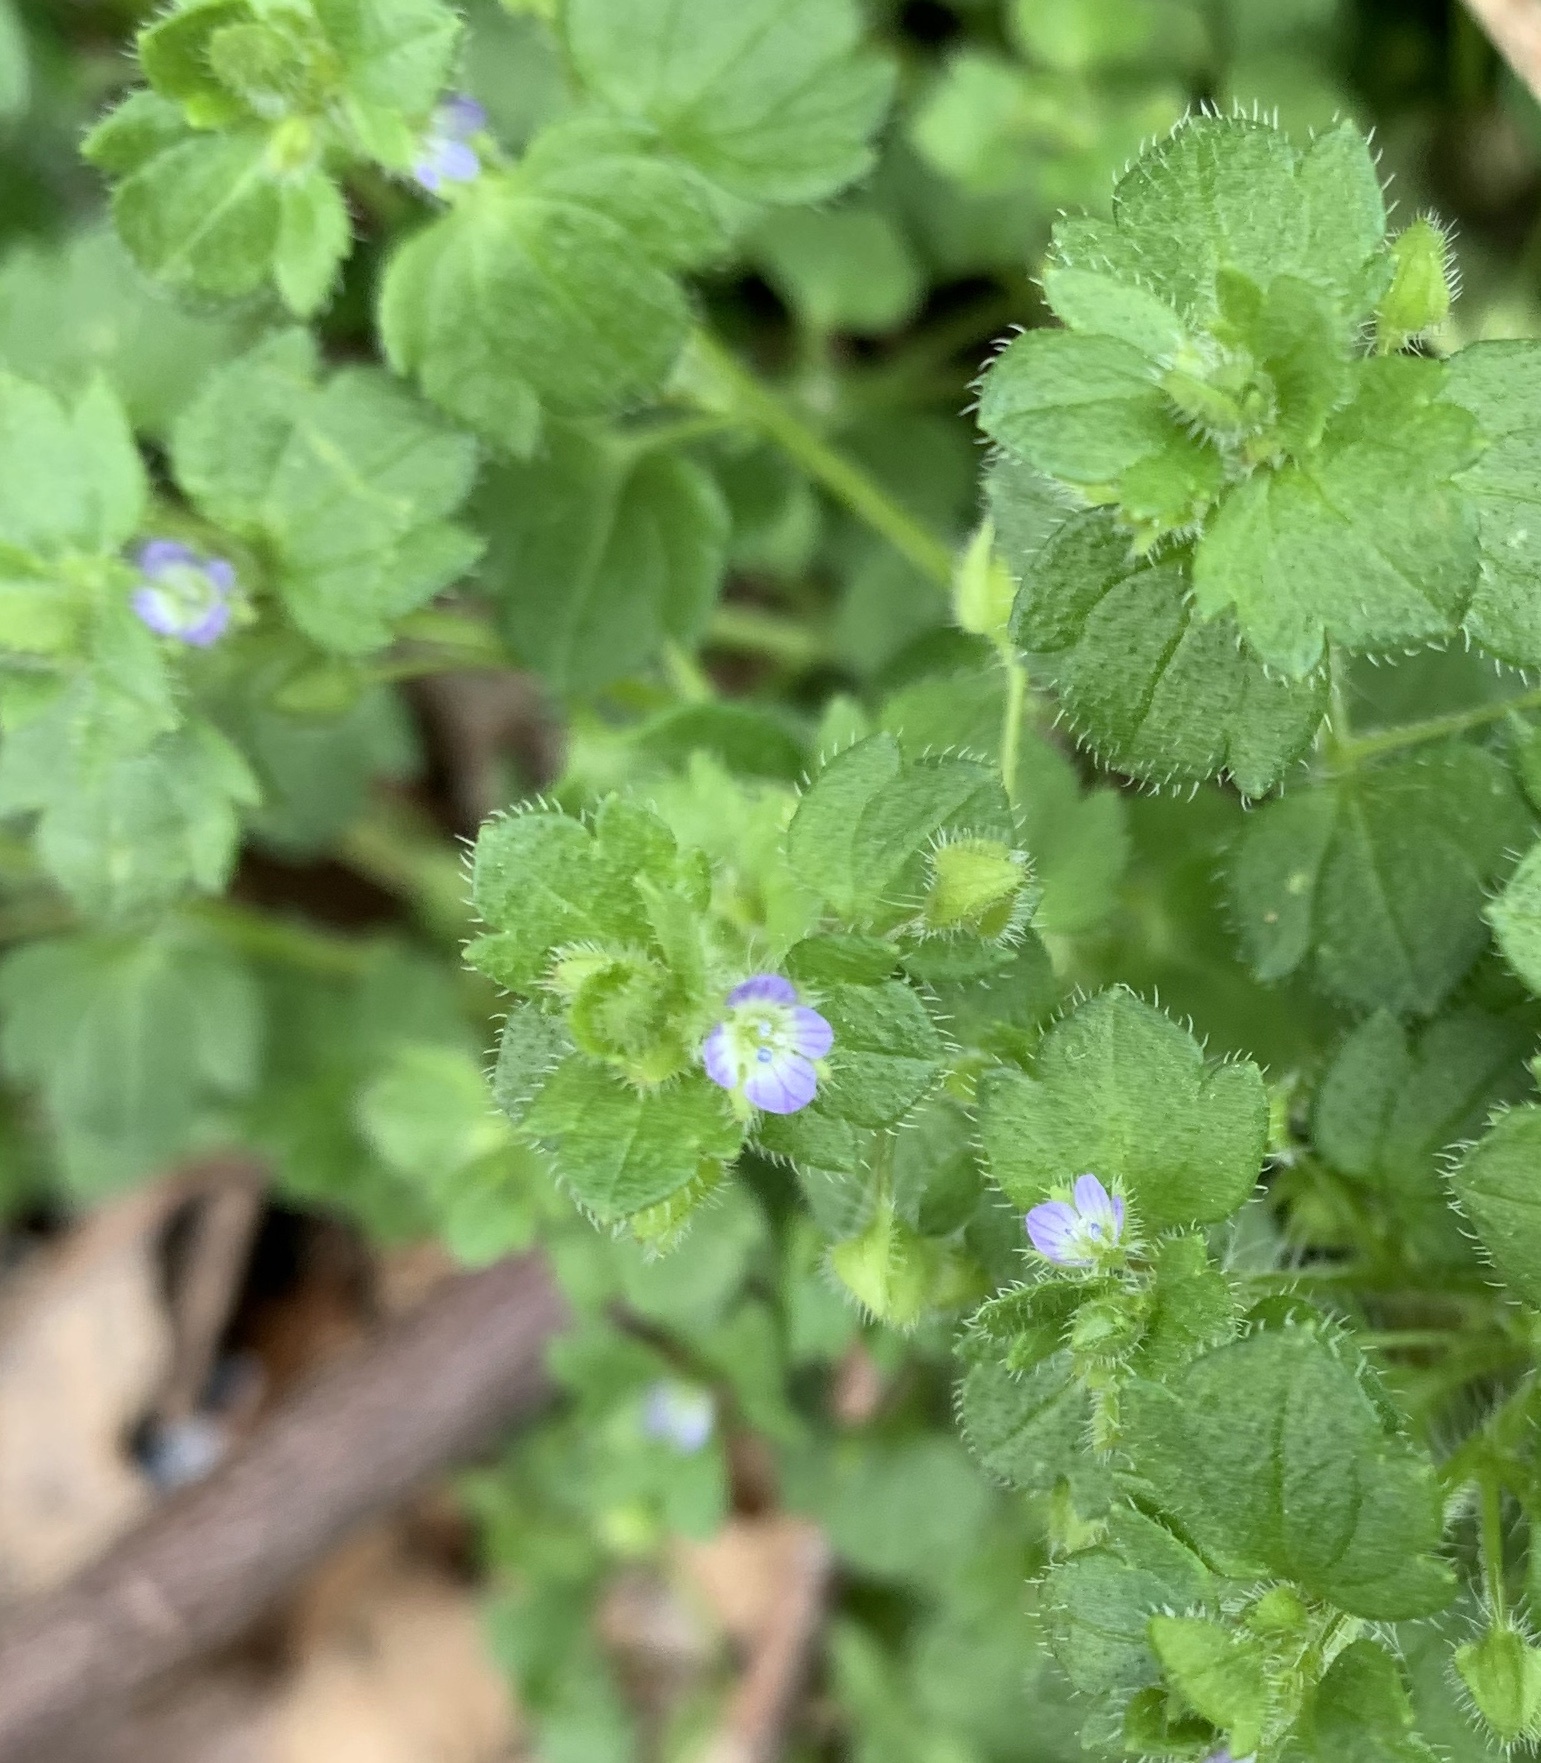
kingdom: Plantae
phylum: Tracheophyta
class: Magnoliopsida
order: Lamiales
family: Plantaginaceae
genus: Veronica
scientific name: Veronica hederifolia
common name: Ivy-leaved speedwell
